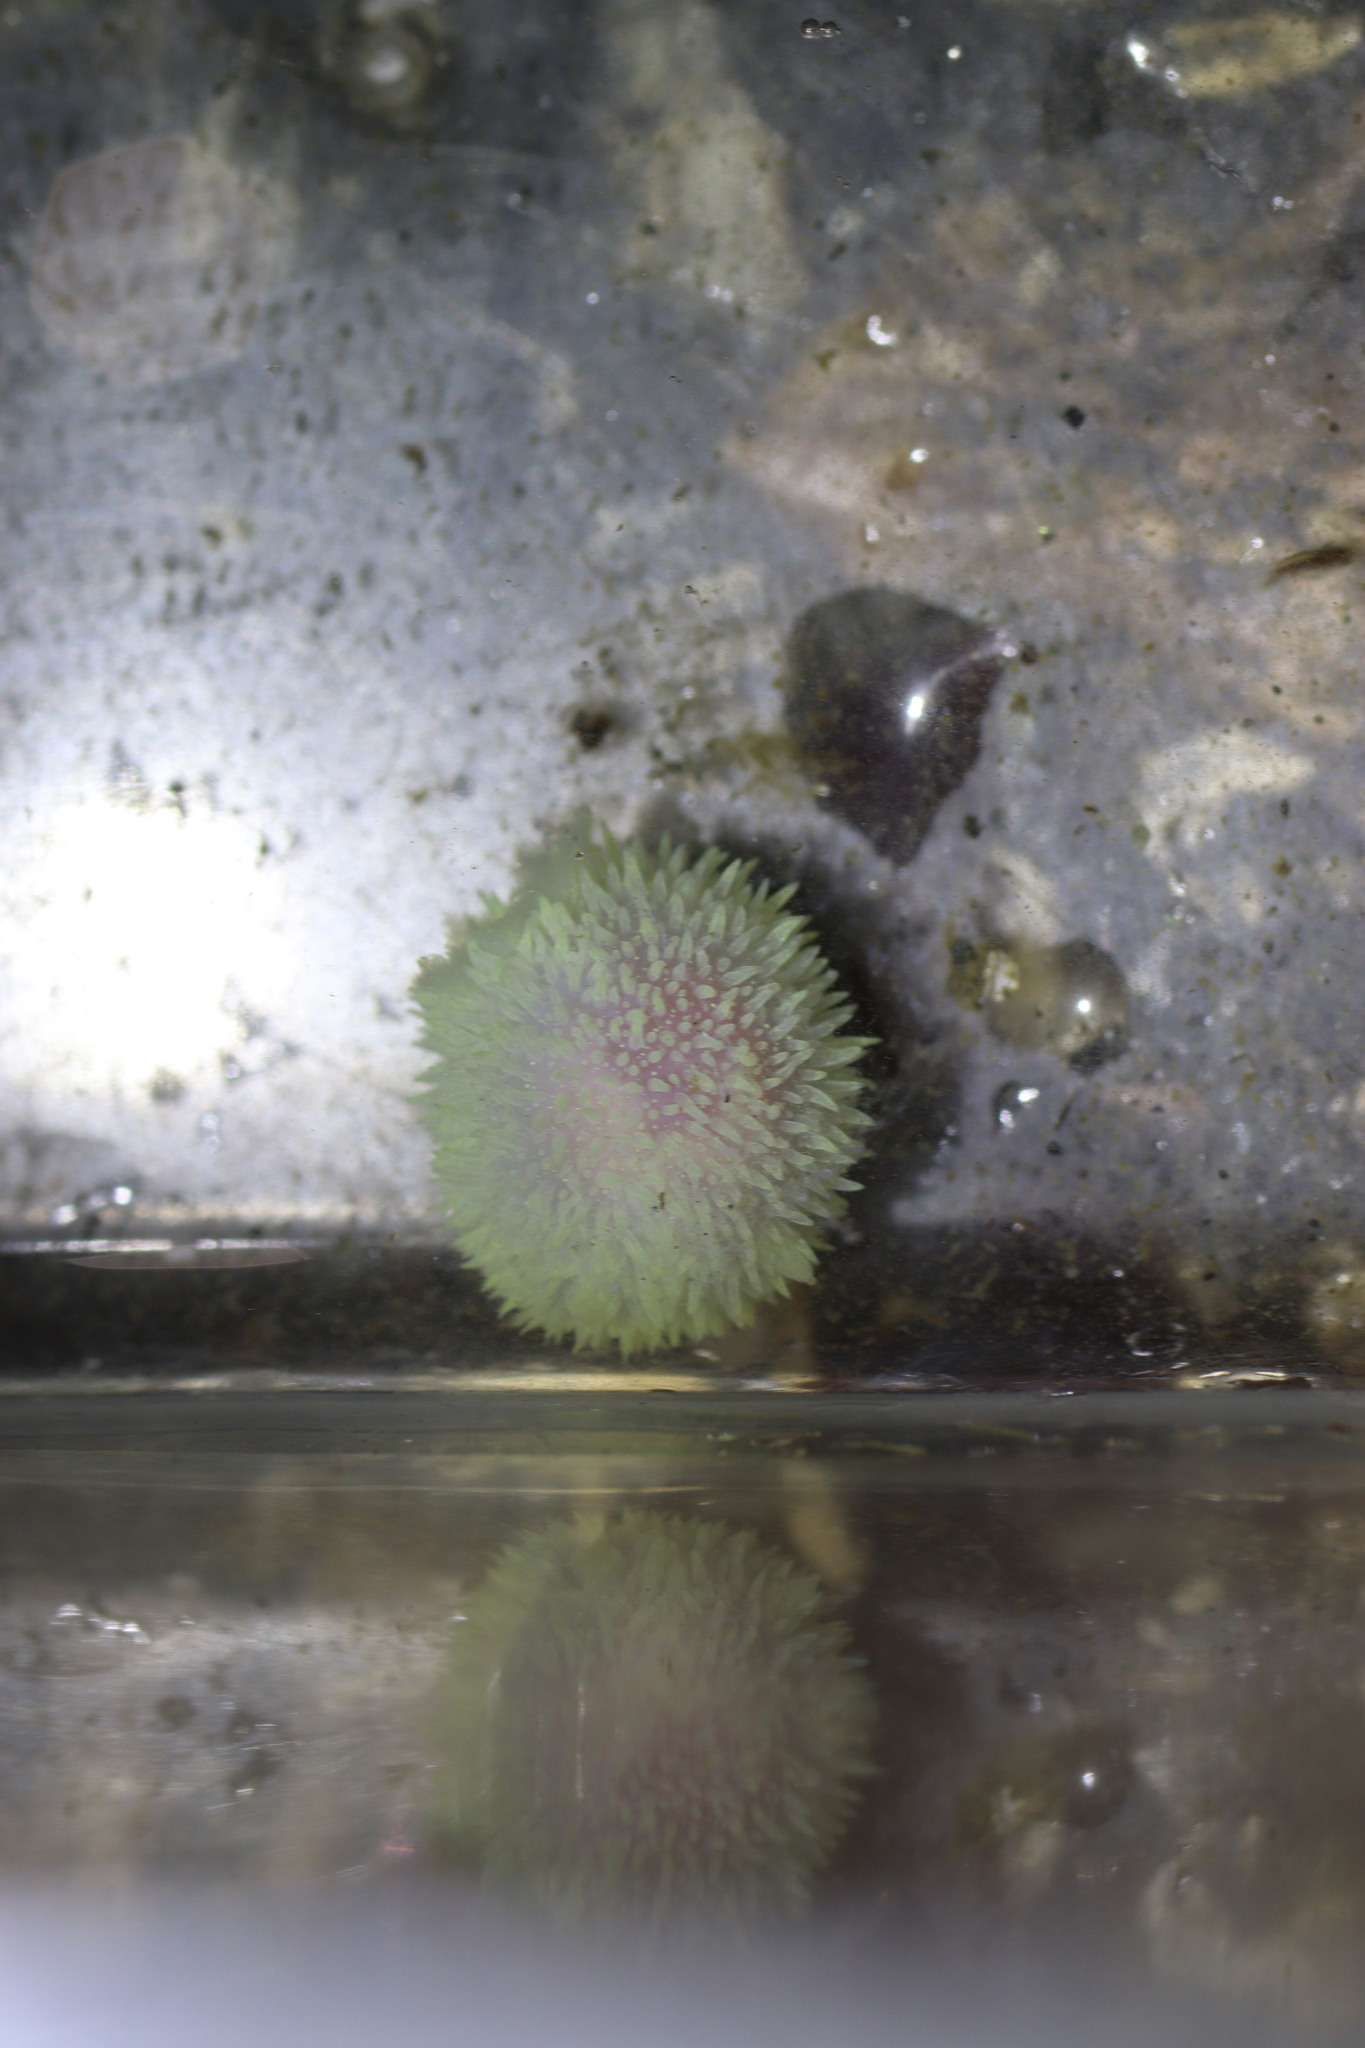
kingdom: Animalia
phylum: Mollusca
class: Gastropoda
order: Nudibranchia
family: Onchidorididae
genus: Acanthodoris
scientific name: Acanthodoris atrogriseata
